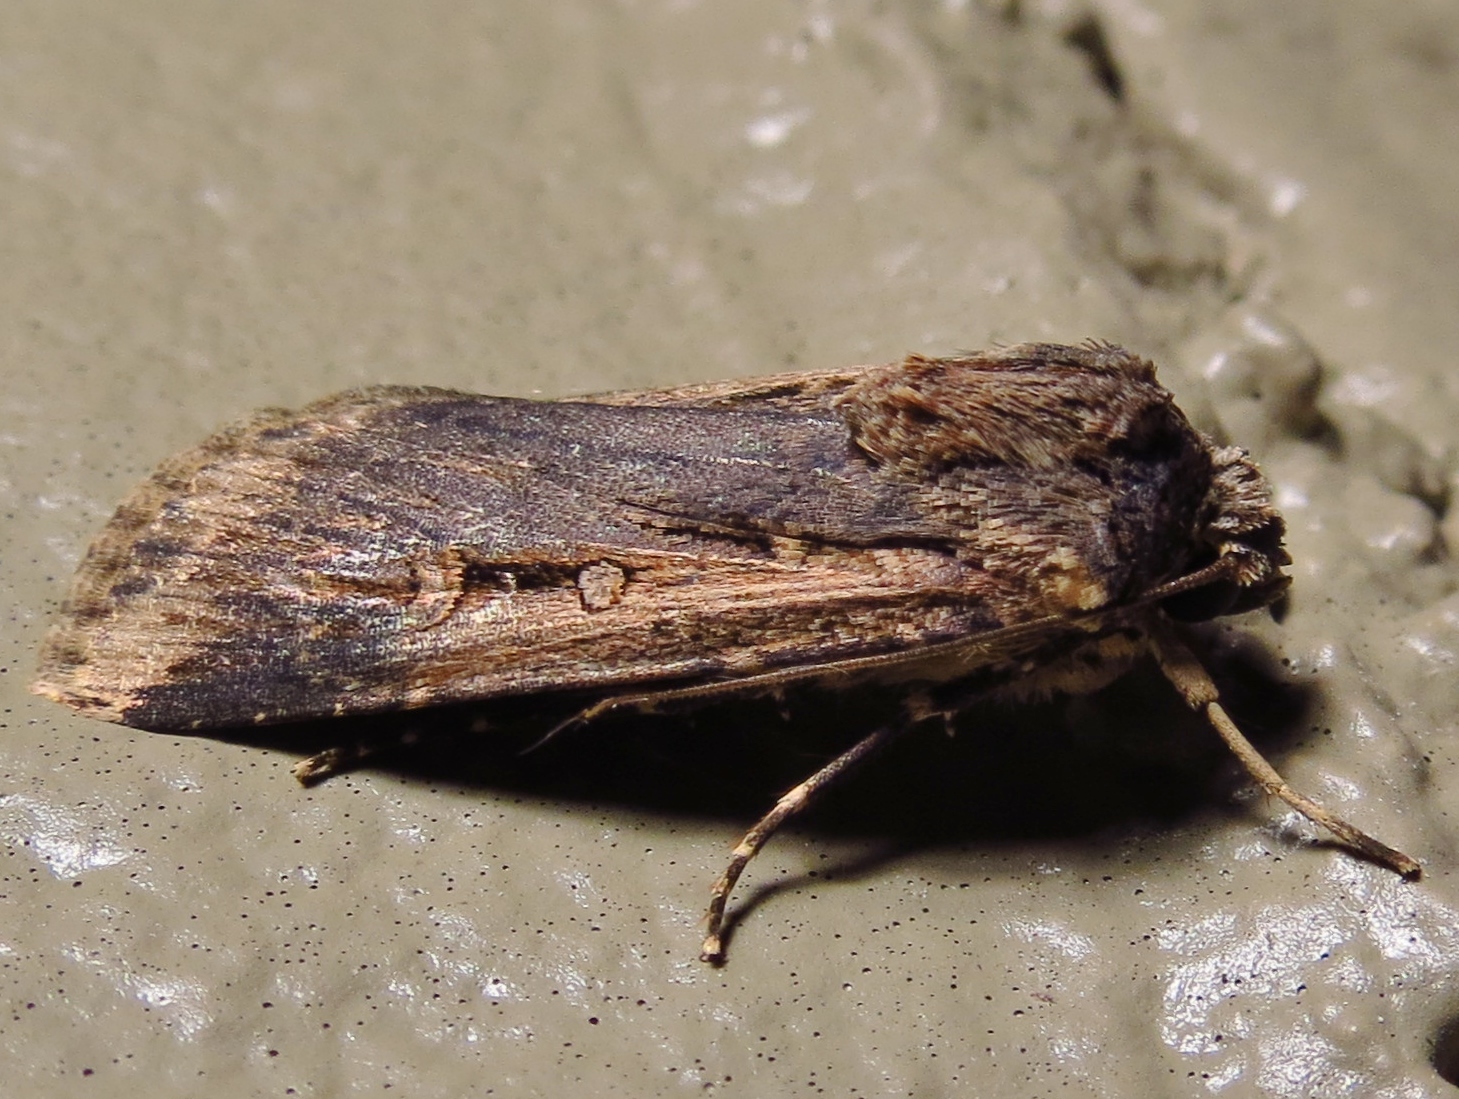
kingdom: Animalia
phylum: Arthropoda
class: Insecta
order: Lepidoptera
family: Noctuidae
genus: Feltia
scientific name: Feltia subterranea
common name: Granulate cutworm
